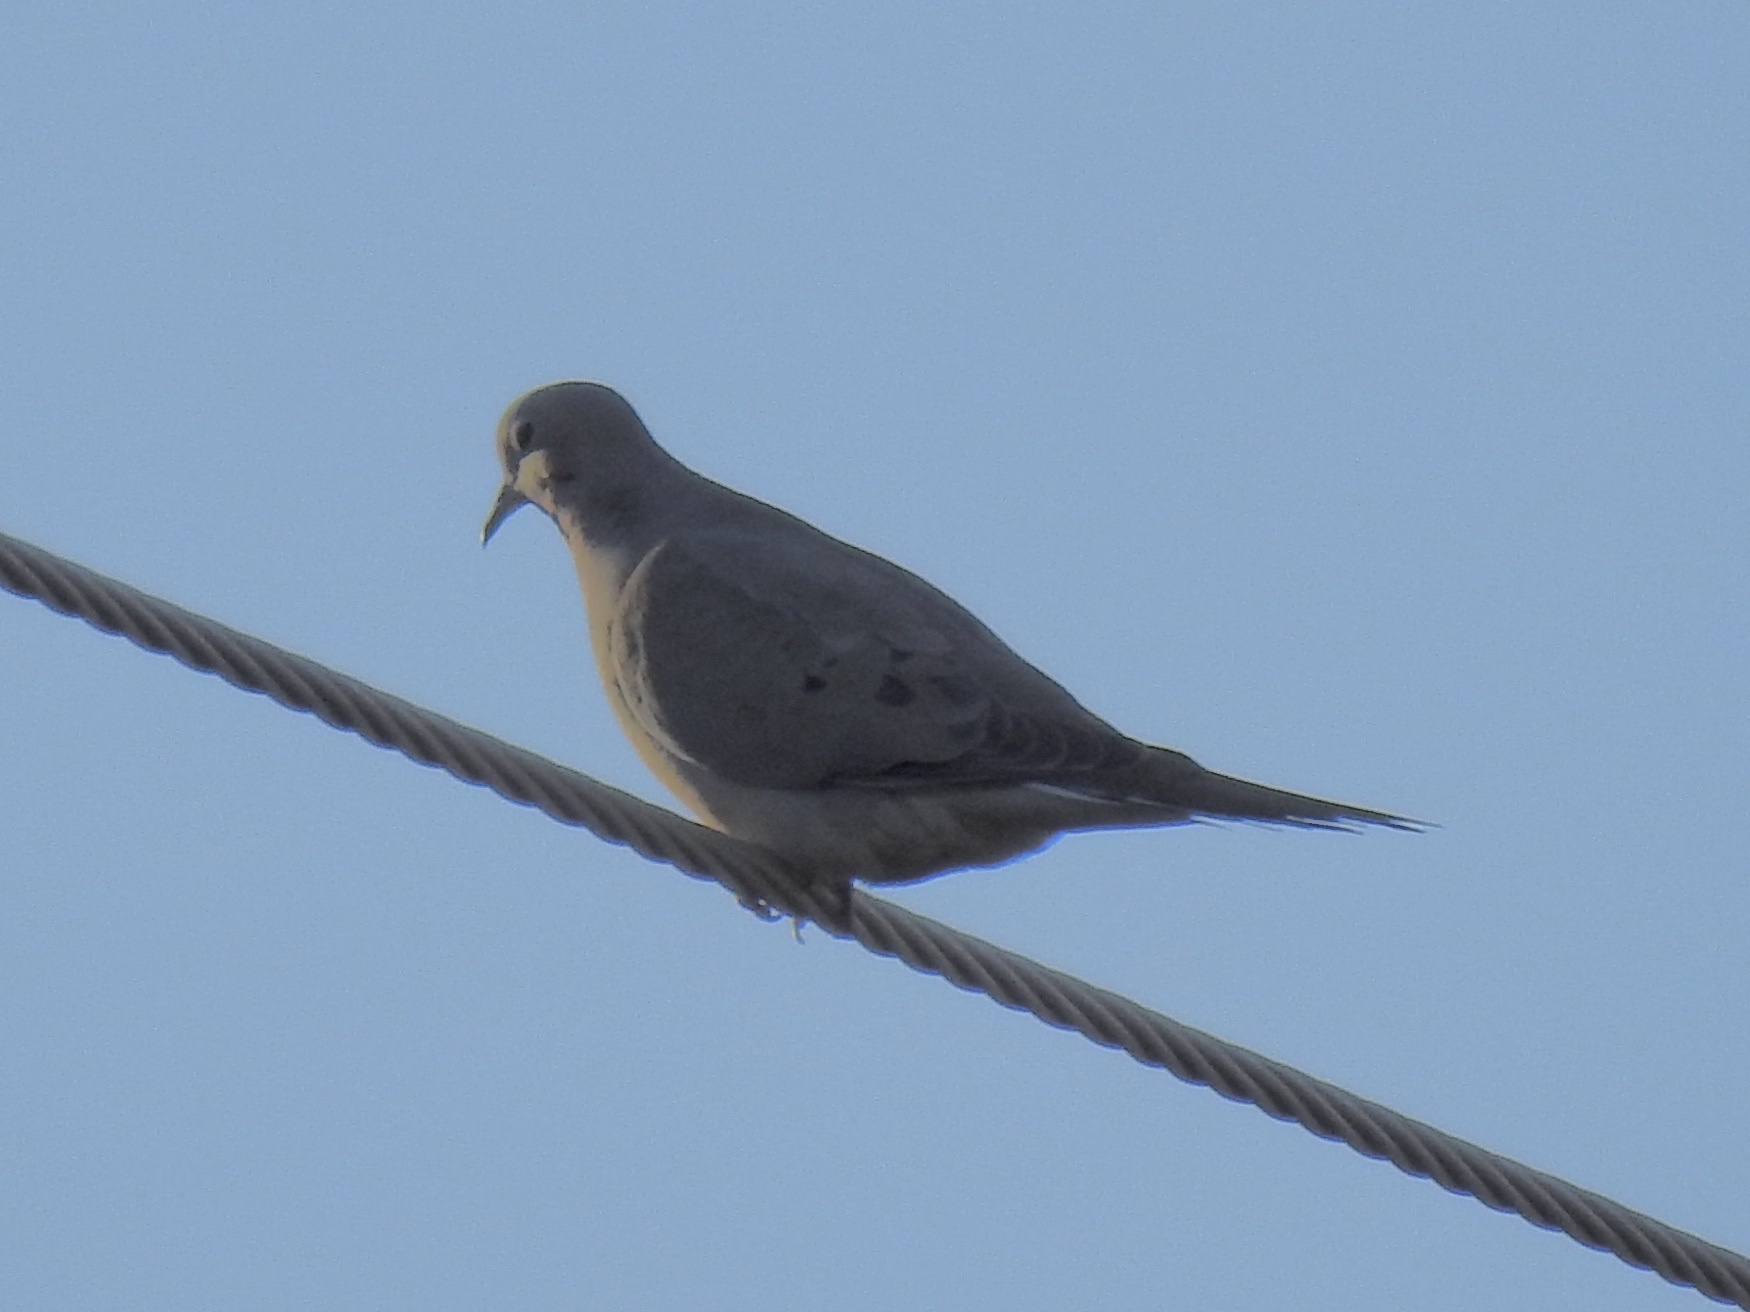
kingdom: Animalia
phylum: Chordata
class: Aves
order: Columbiformes
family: Columbidae
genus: Zenaida
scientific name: Zenaida macroura
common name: Mourning dove
